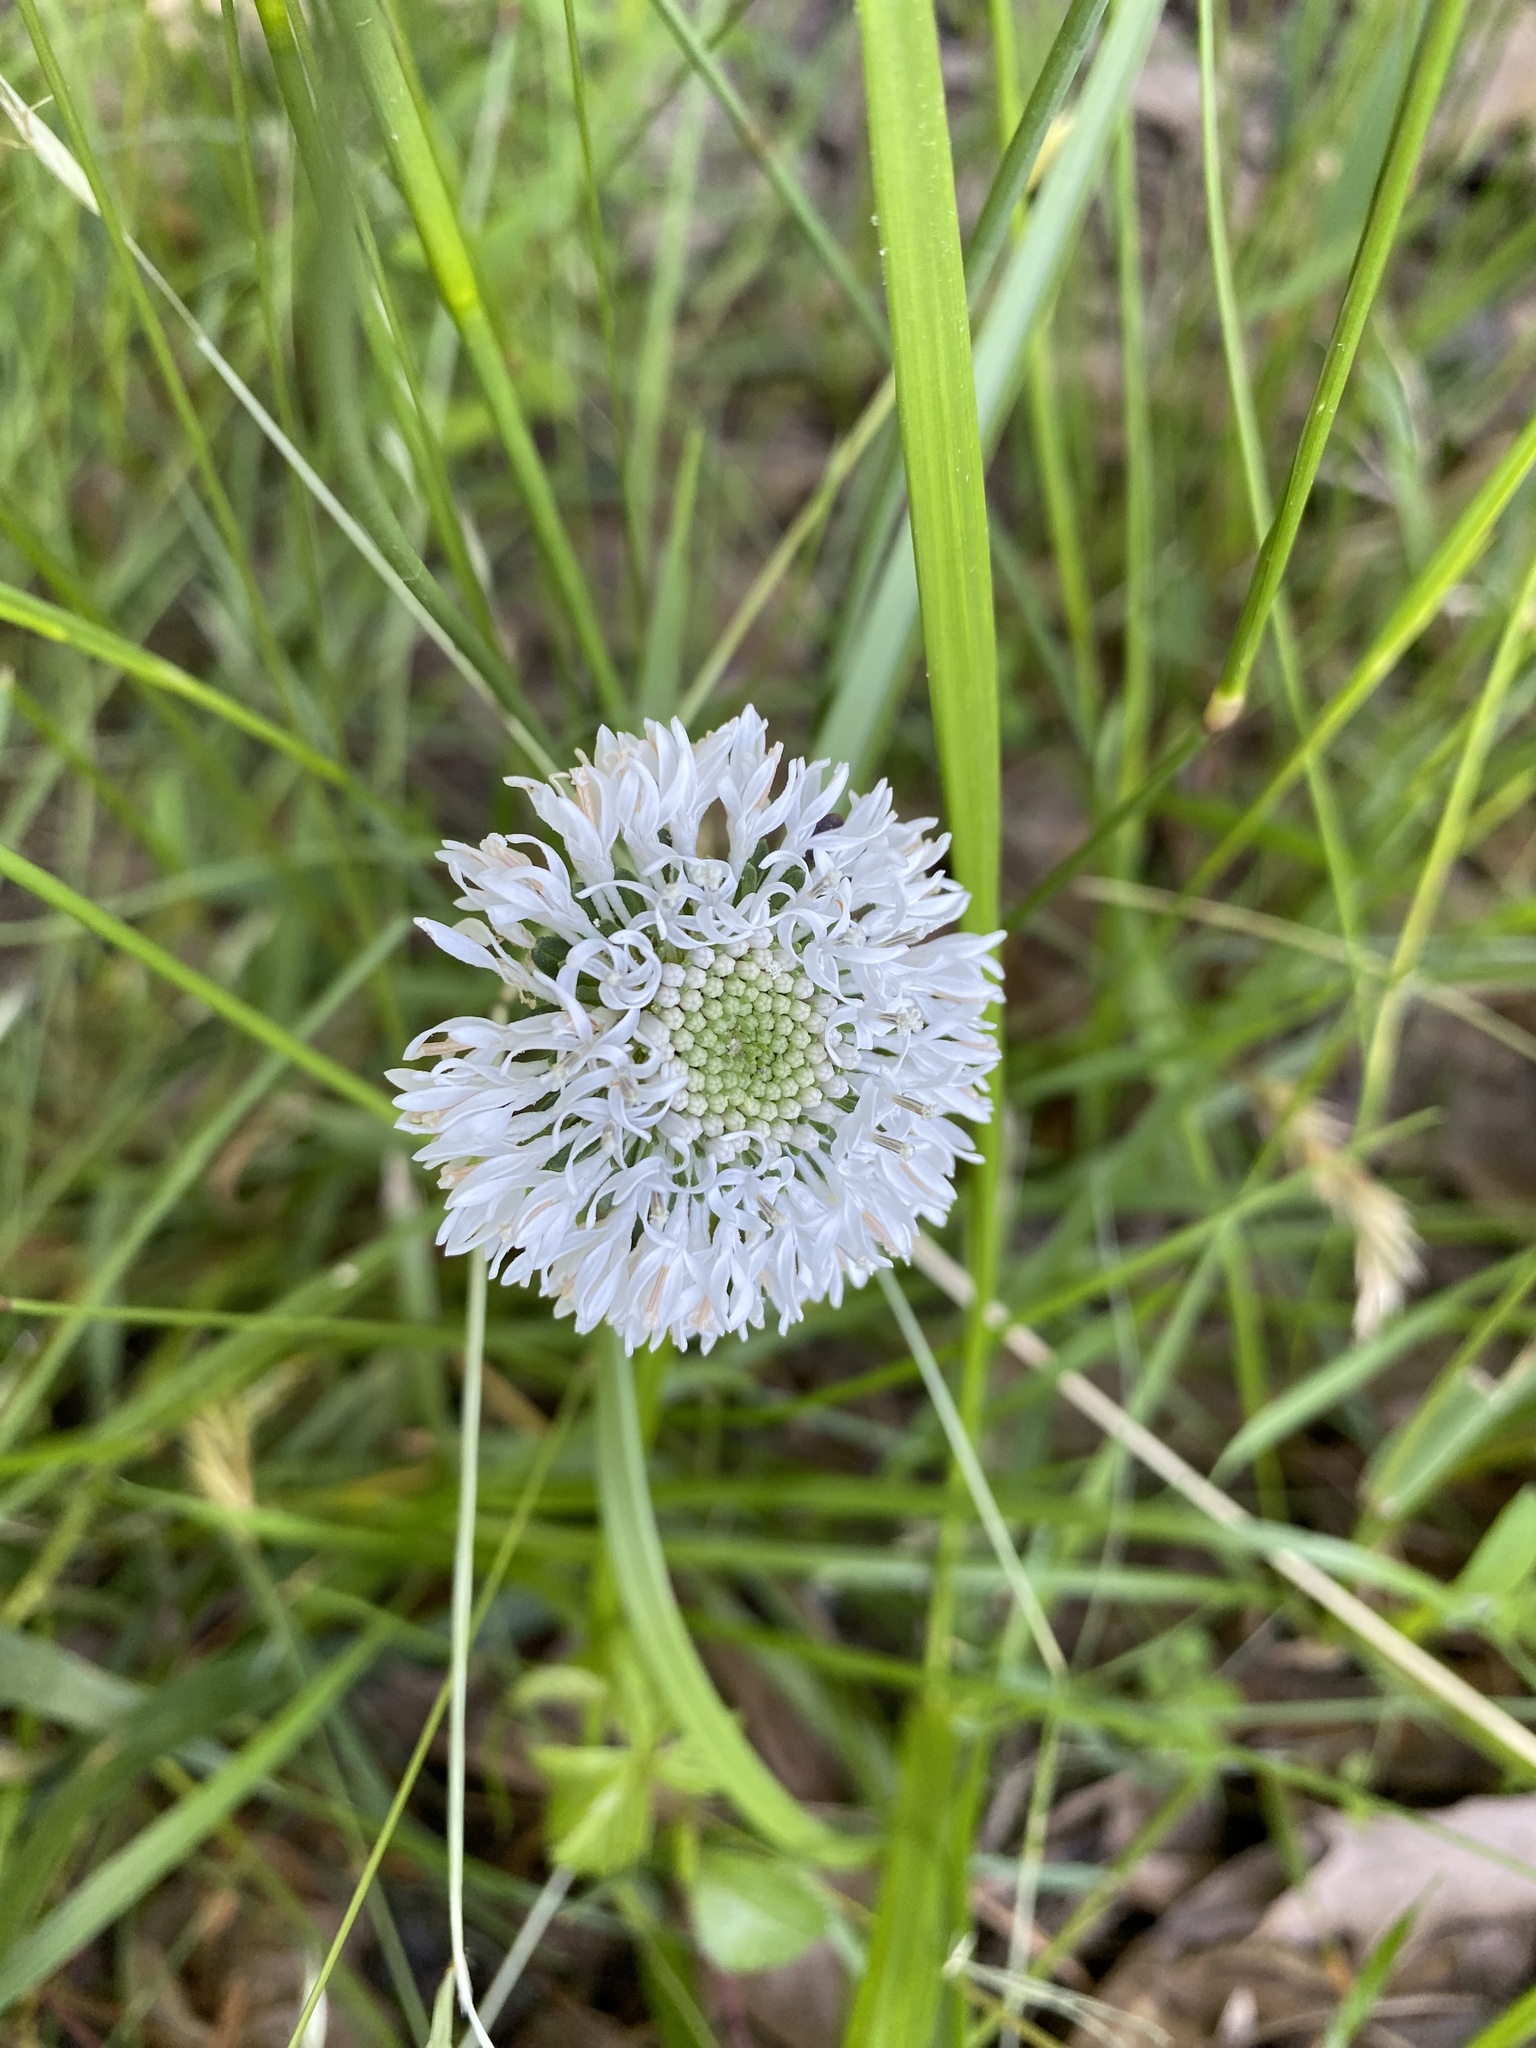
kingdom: Plantae
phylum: Tracheophyta
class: Magnoliopsida
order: Asterales
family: Asteraceae
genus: Marshallia
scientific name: Marshallia obovata
